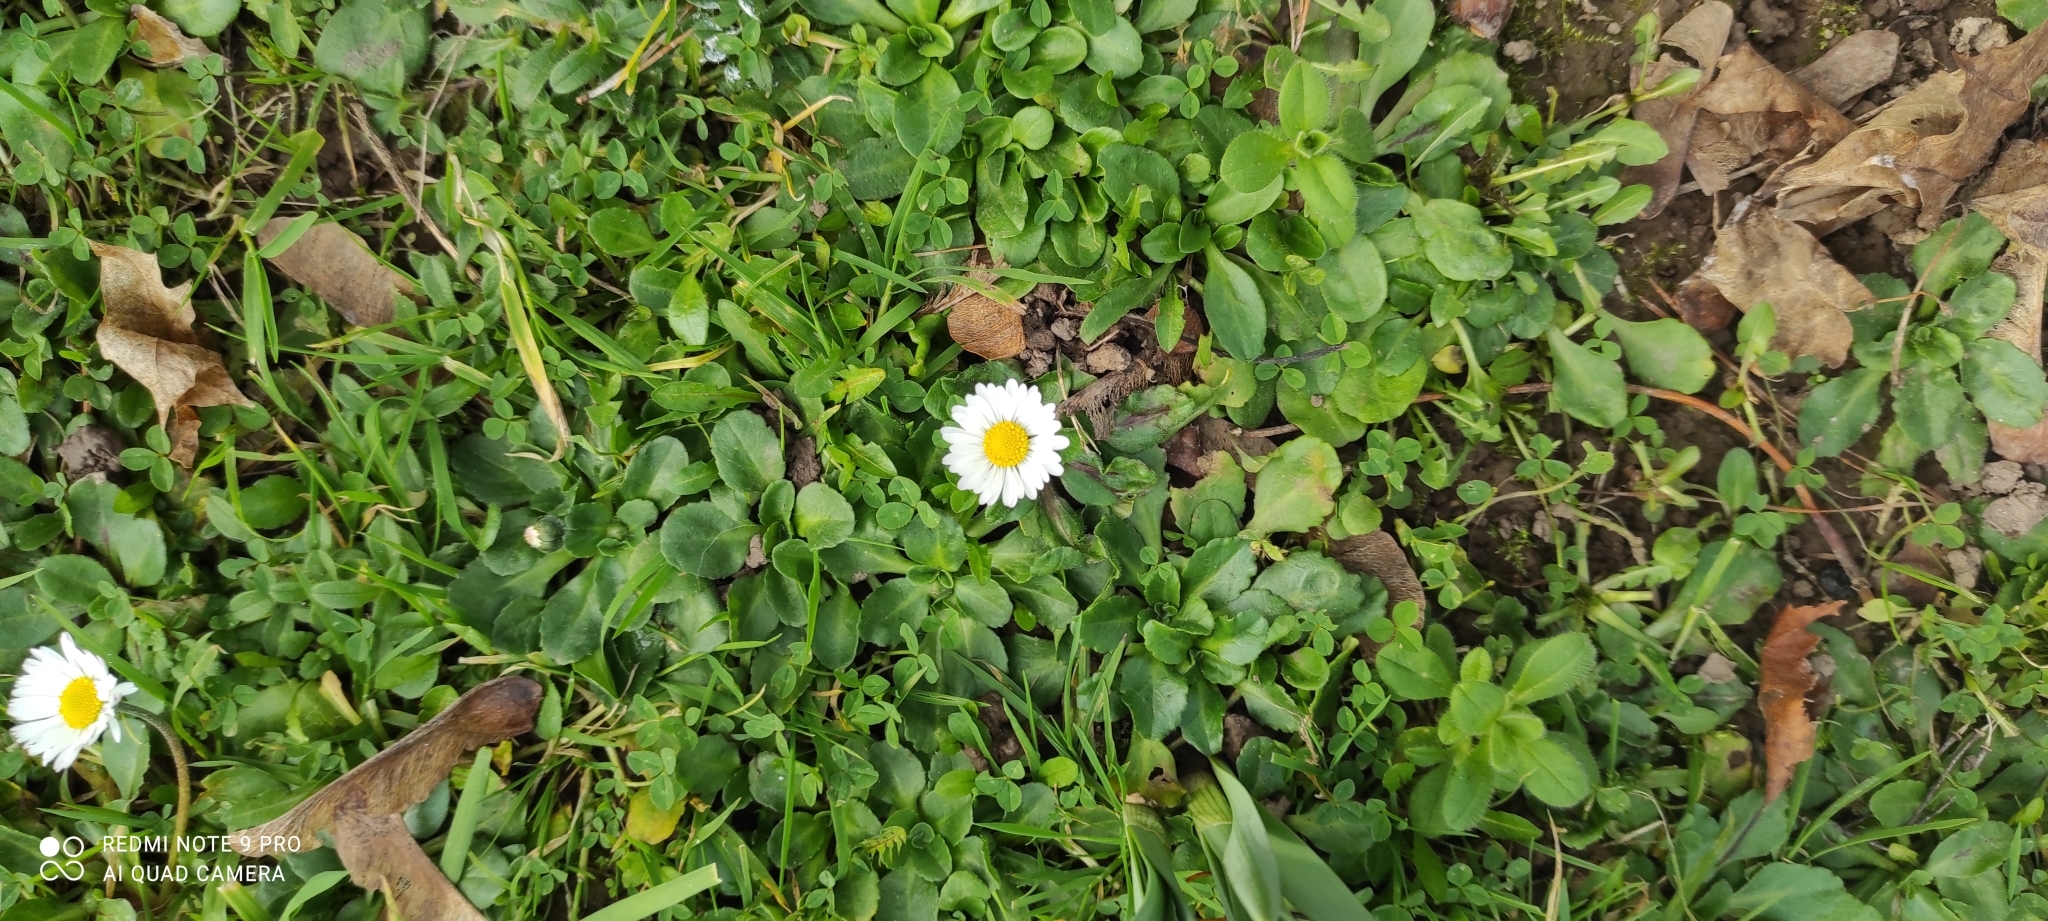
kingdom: Plantae
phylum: Tracheophyta
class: Magnoliopsida
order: Asterales
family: Asteraceae
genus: Bellis
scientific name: Bellis perennis
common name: Lawndaisy
